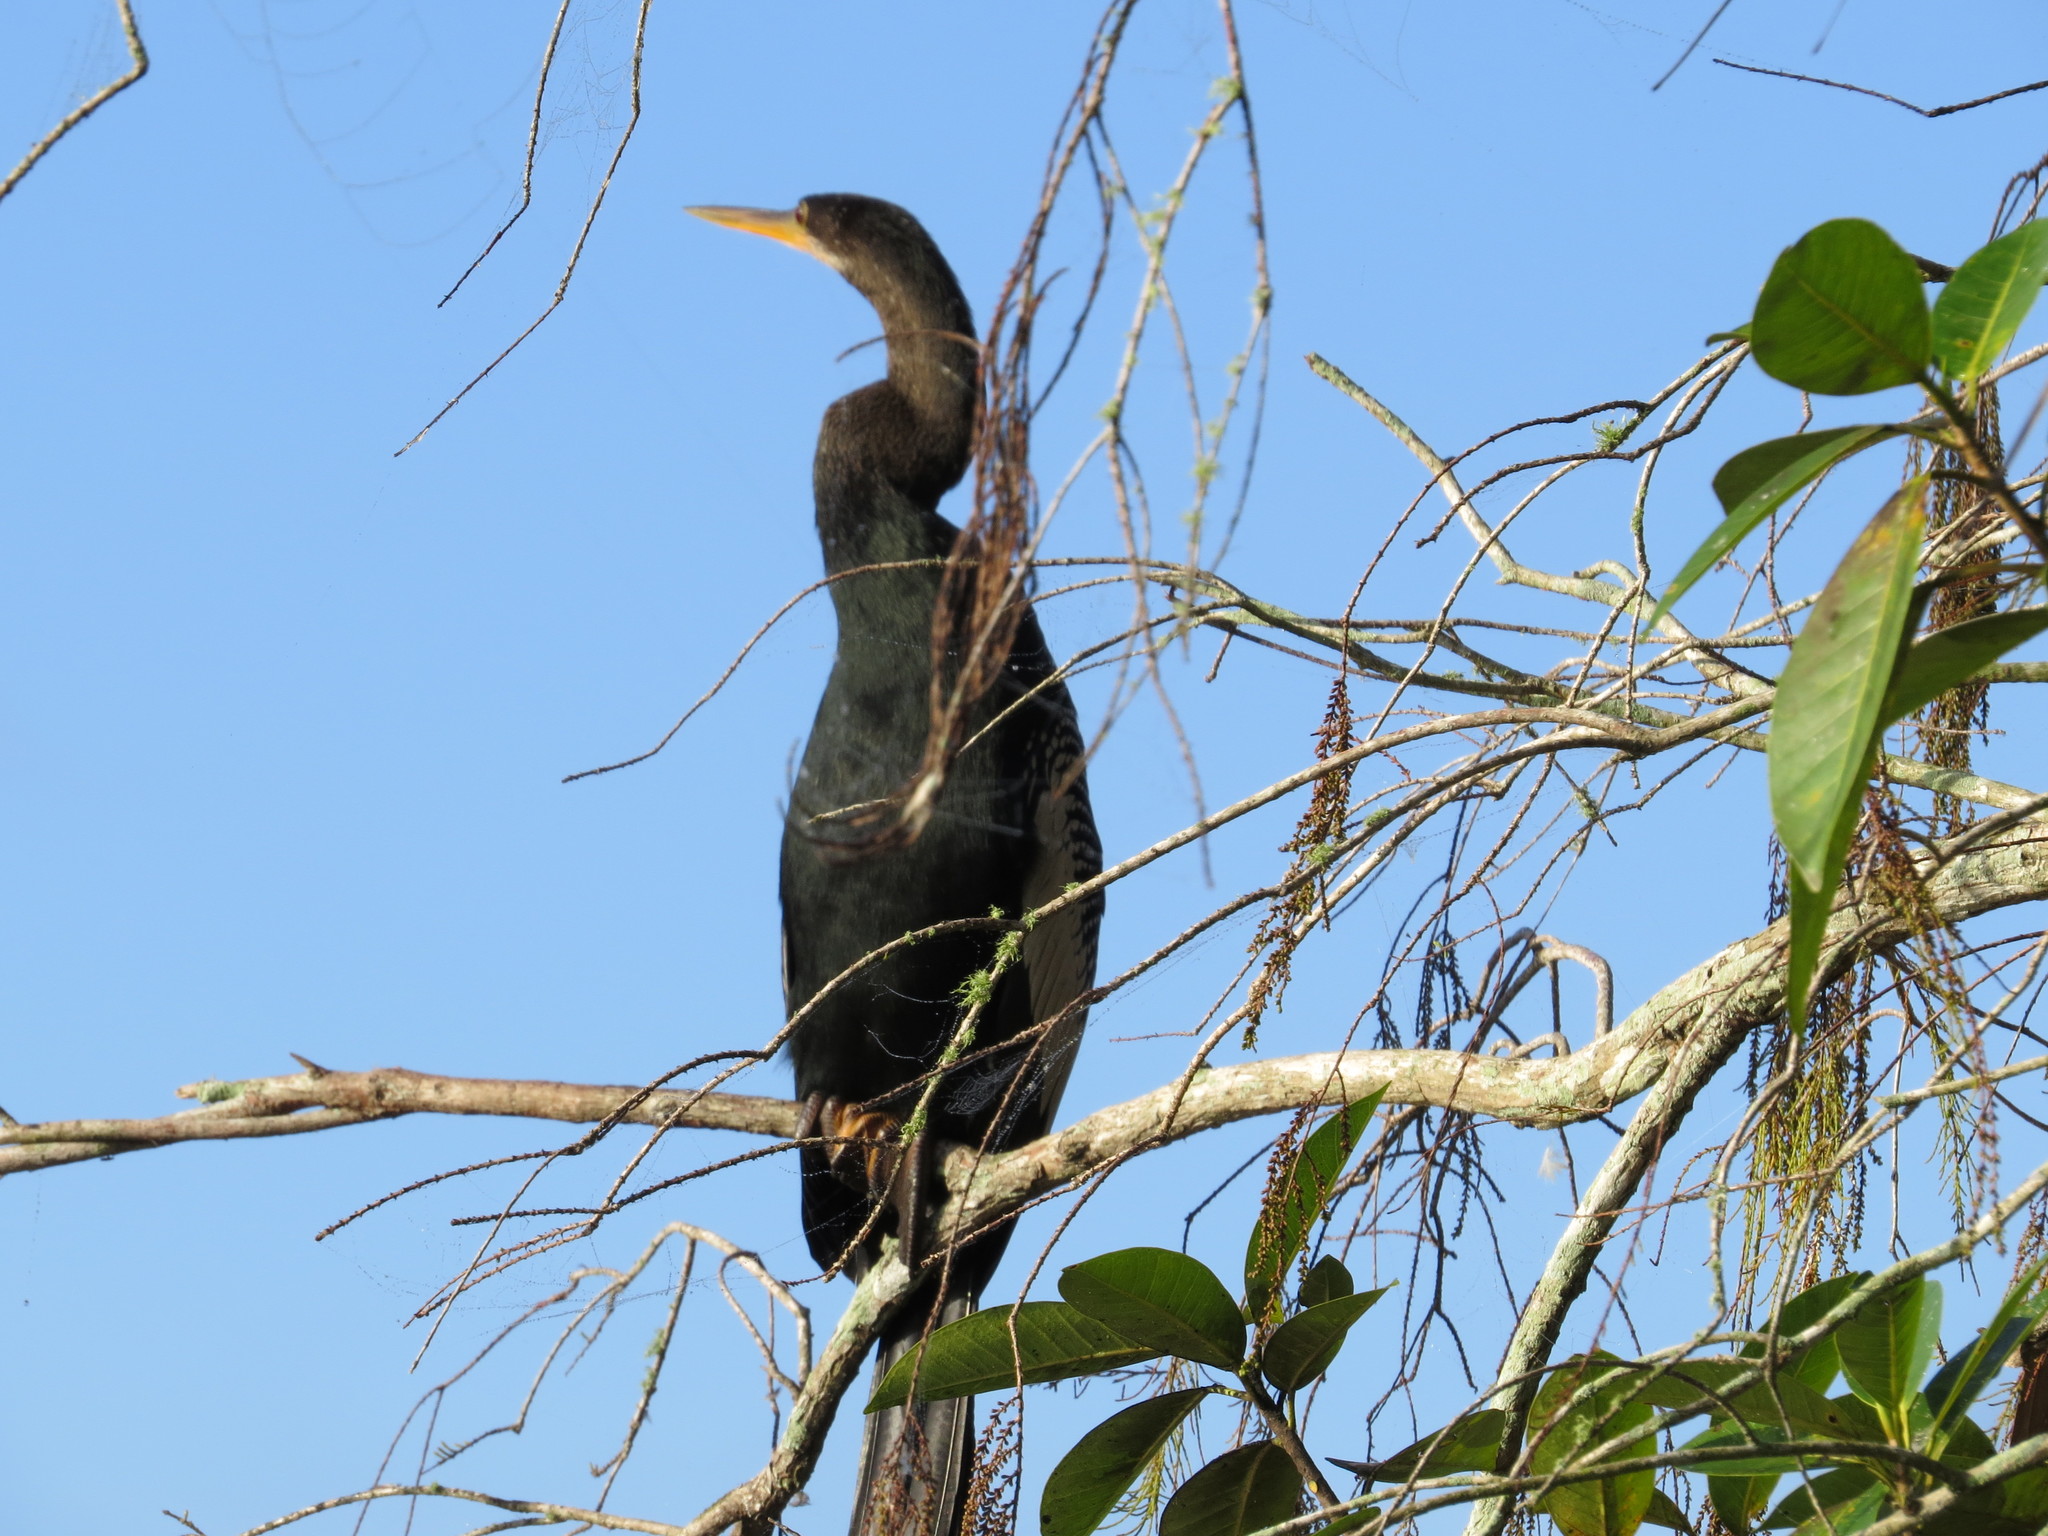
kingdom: Animalia
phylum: Chordata
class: Aves
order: Suliformes
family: Anhingidae
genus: Anhinga
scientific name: Anhinga anhinga
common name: Anhinga
